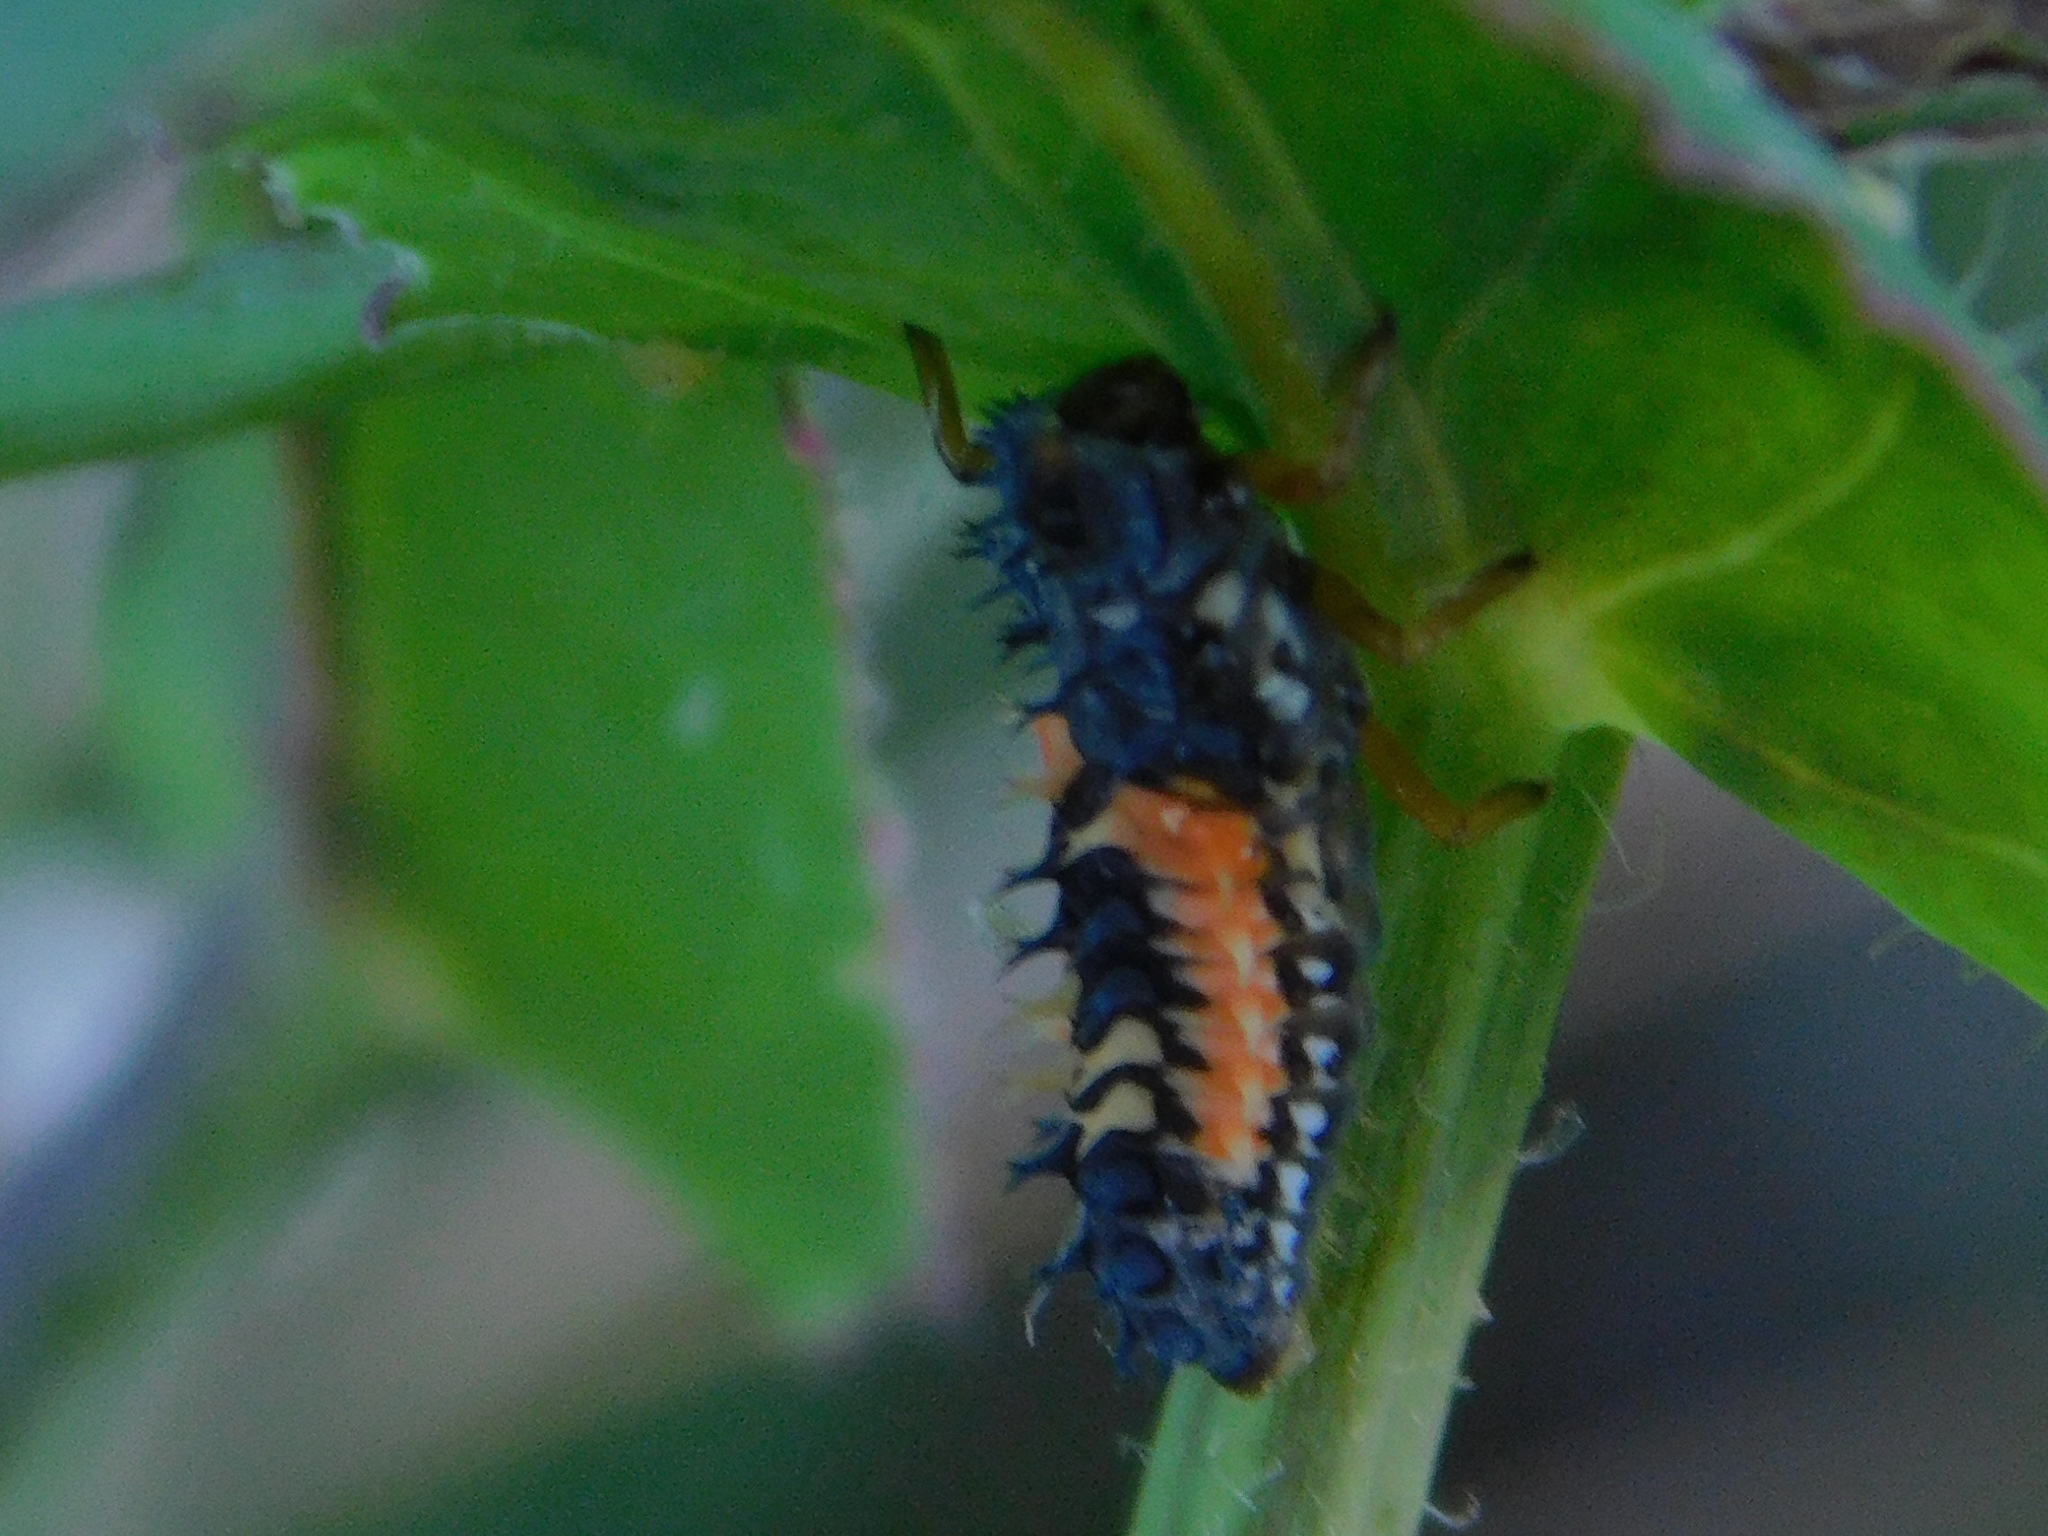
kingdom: Animalia
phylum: Arthropoda
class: Insecta
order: Coleoptera
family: Coccinellidae
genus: Harmonia
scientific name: Harmonia axyridis
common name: Harlequin ladybird
